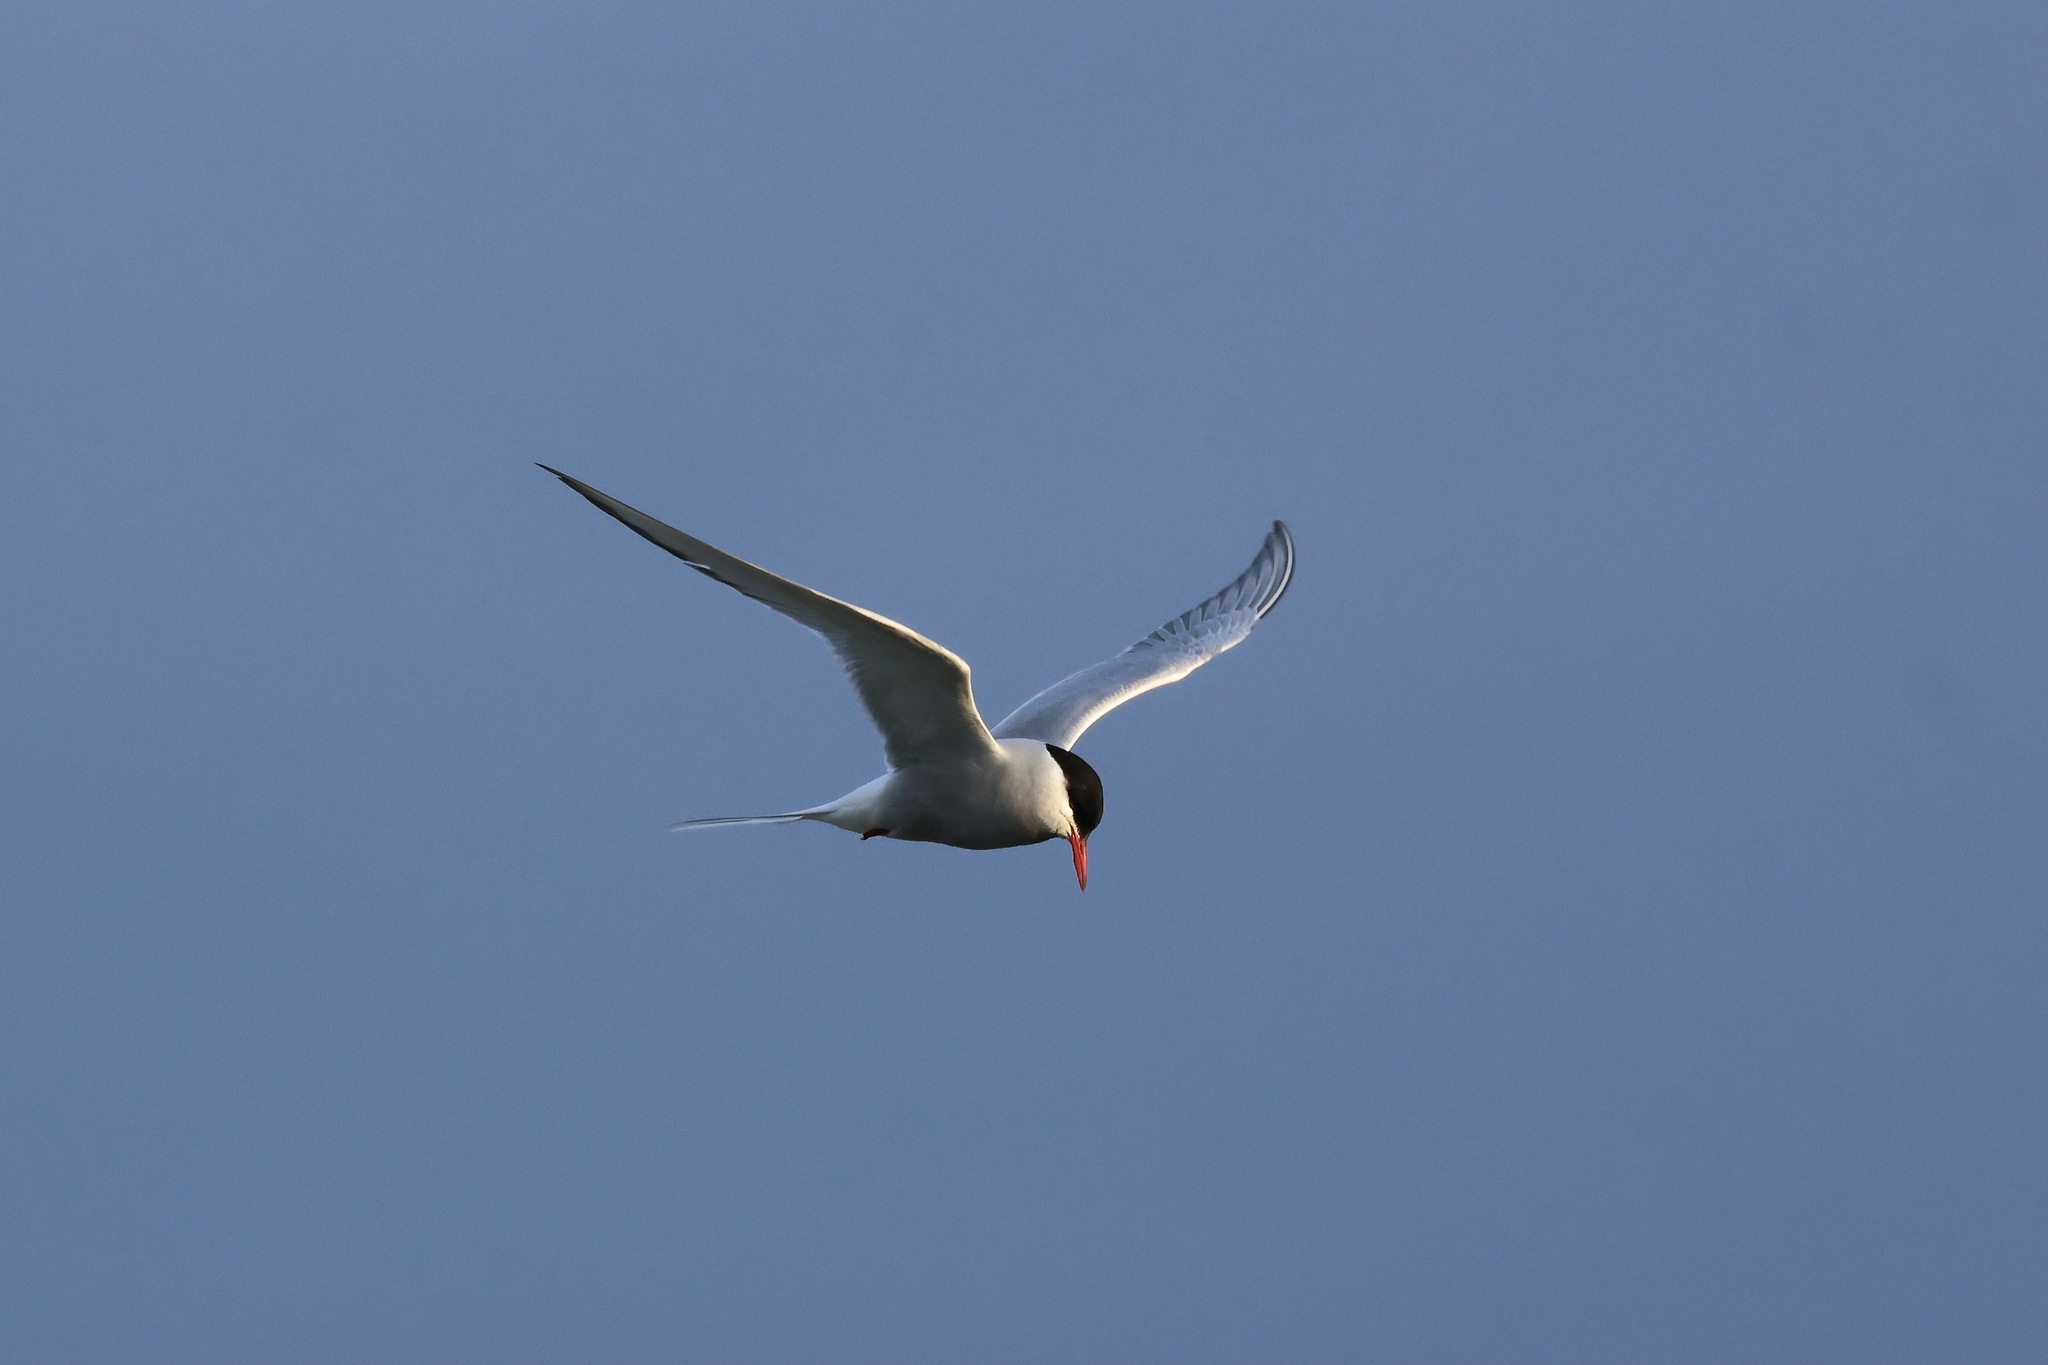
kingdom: Animalia
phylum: Chordata
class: Aves
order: Charadriiformes
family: Laridae
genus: Sterna
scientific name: Sterna paradisaea
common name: Arctic tern
